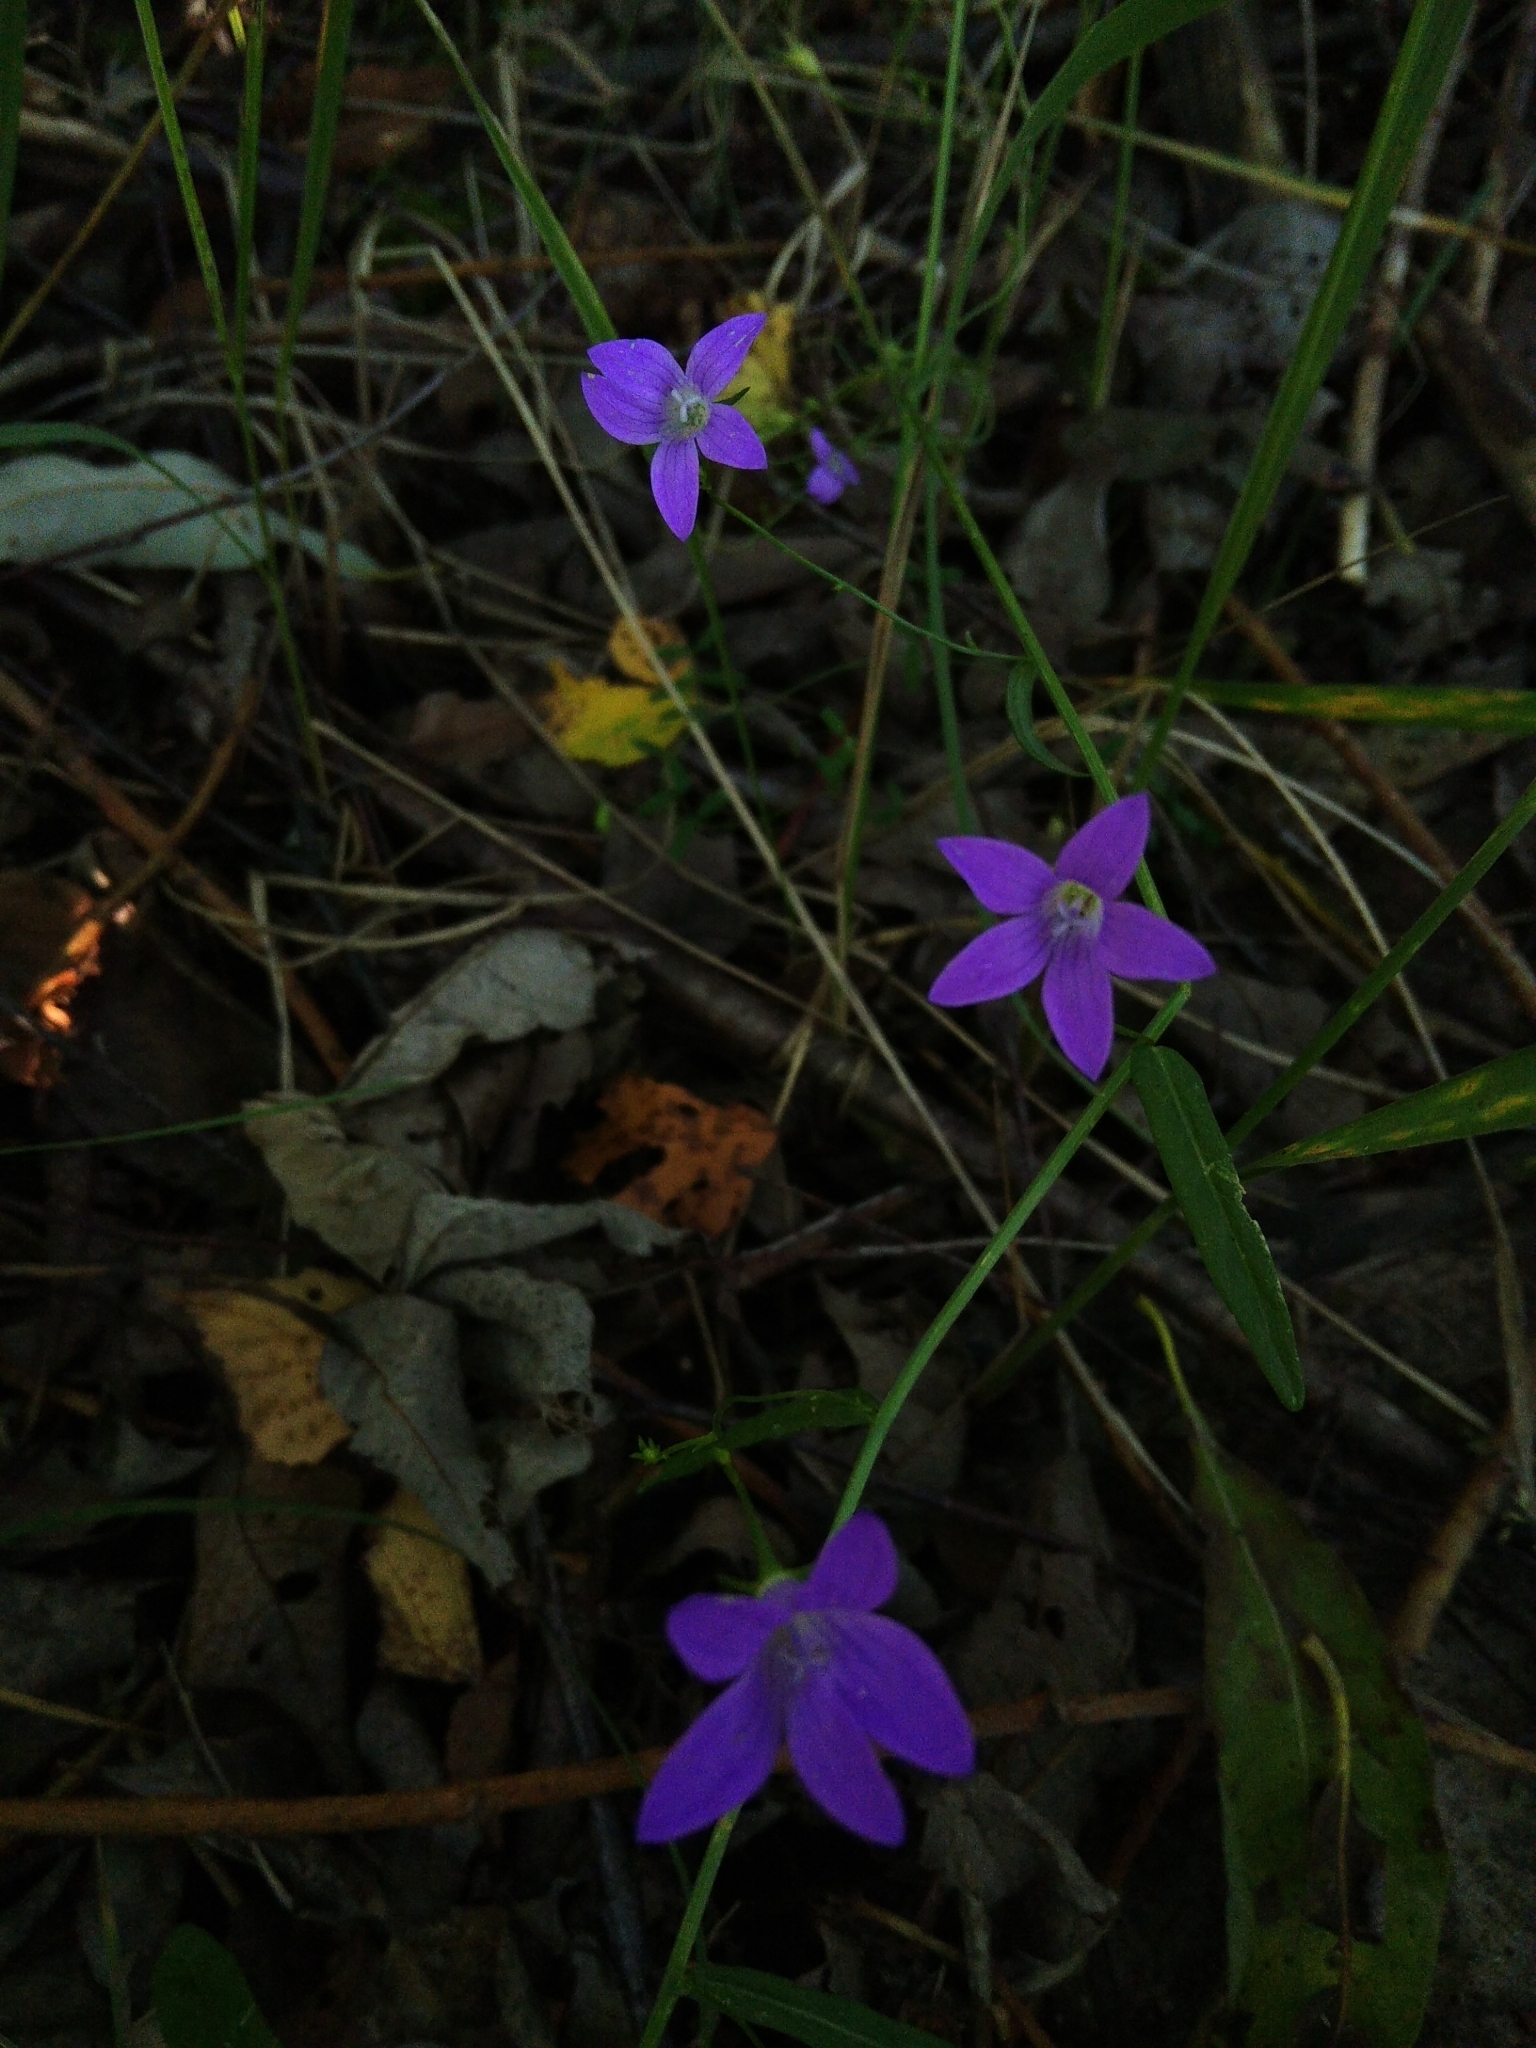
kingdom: Plantae
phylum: Tracheophyta
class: Magnoliopsida
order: Asterales
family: Campanulaceae
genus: Campanula
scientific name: Campanula patula
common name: Spreading bellflower
